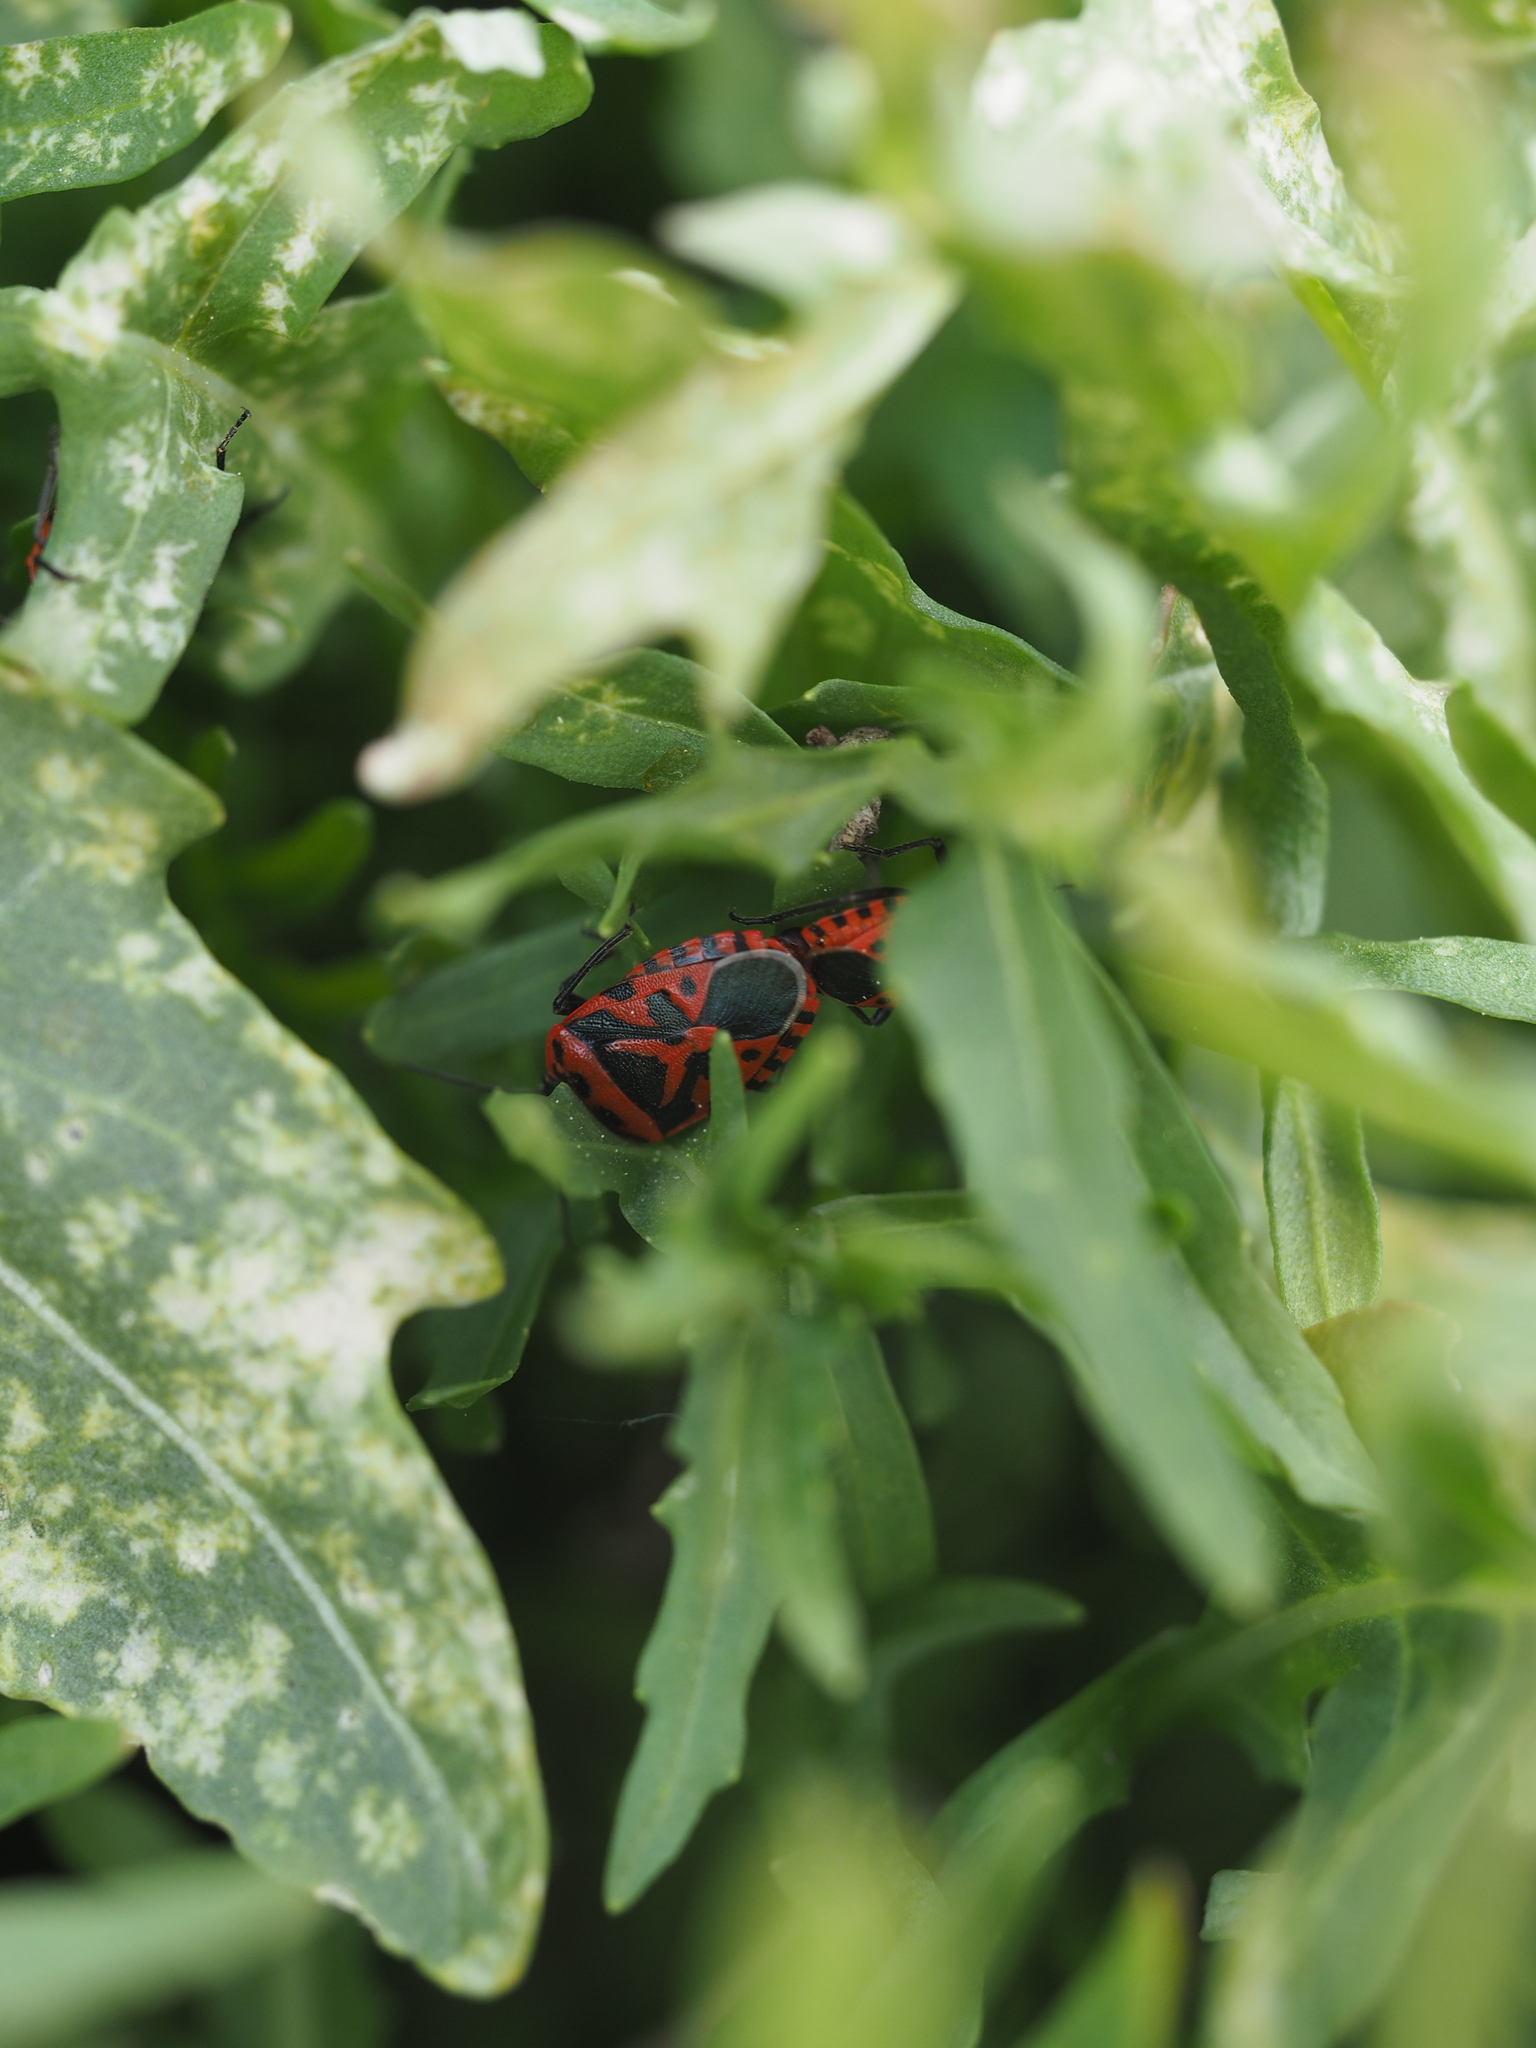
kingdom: Animalia
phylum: Arthropoda
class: Insecta
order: Hemiptera
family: Pentatomidae
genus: Eurydema
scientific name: Eurydema ventralis
